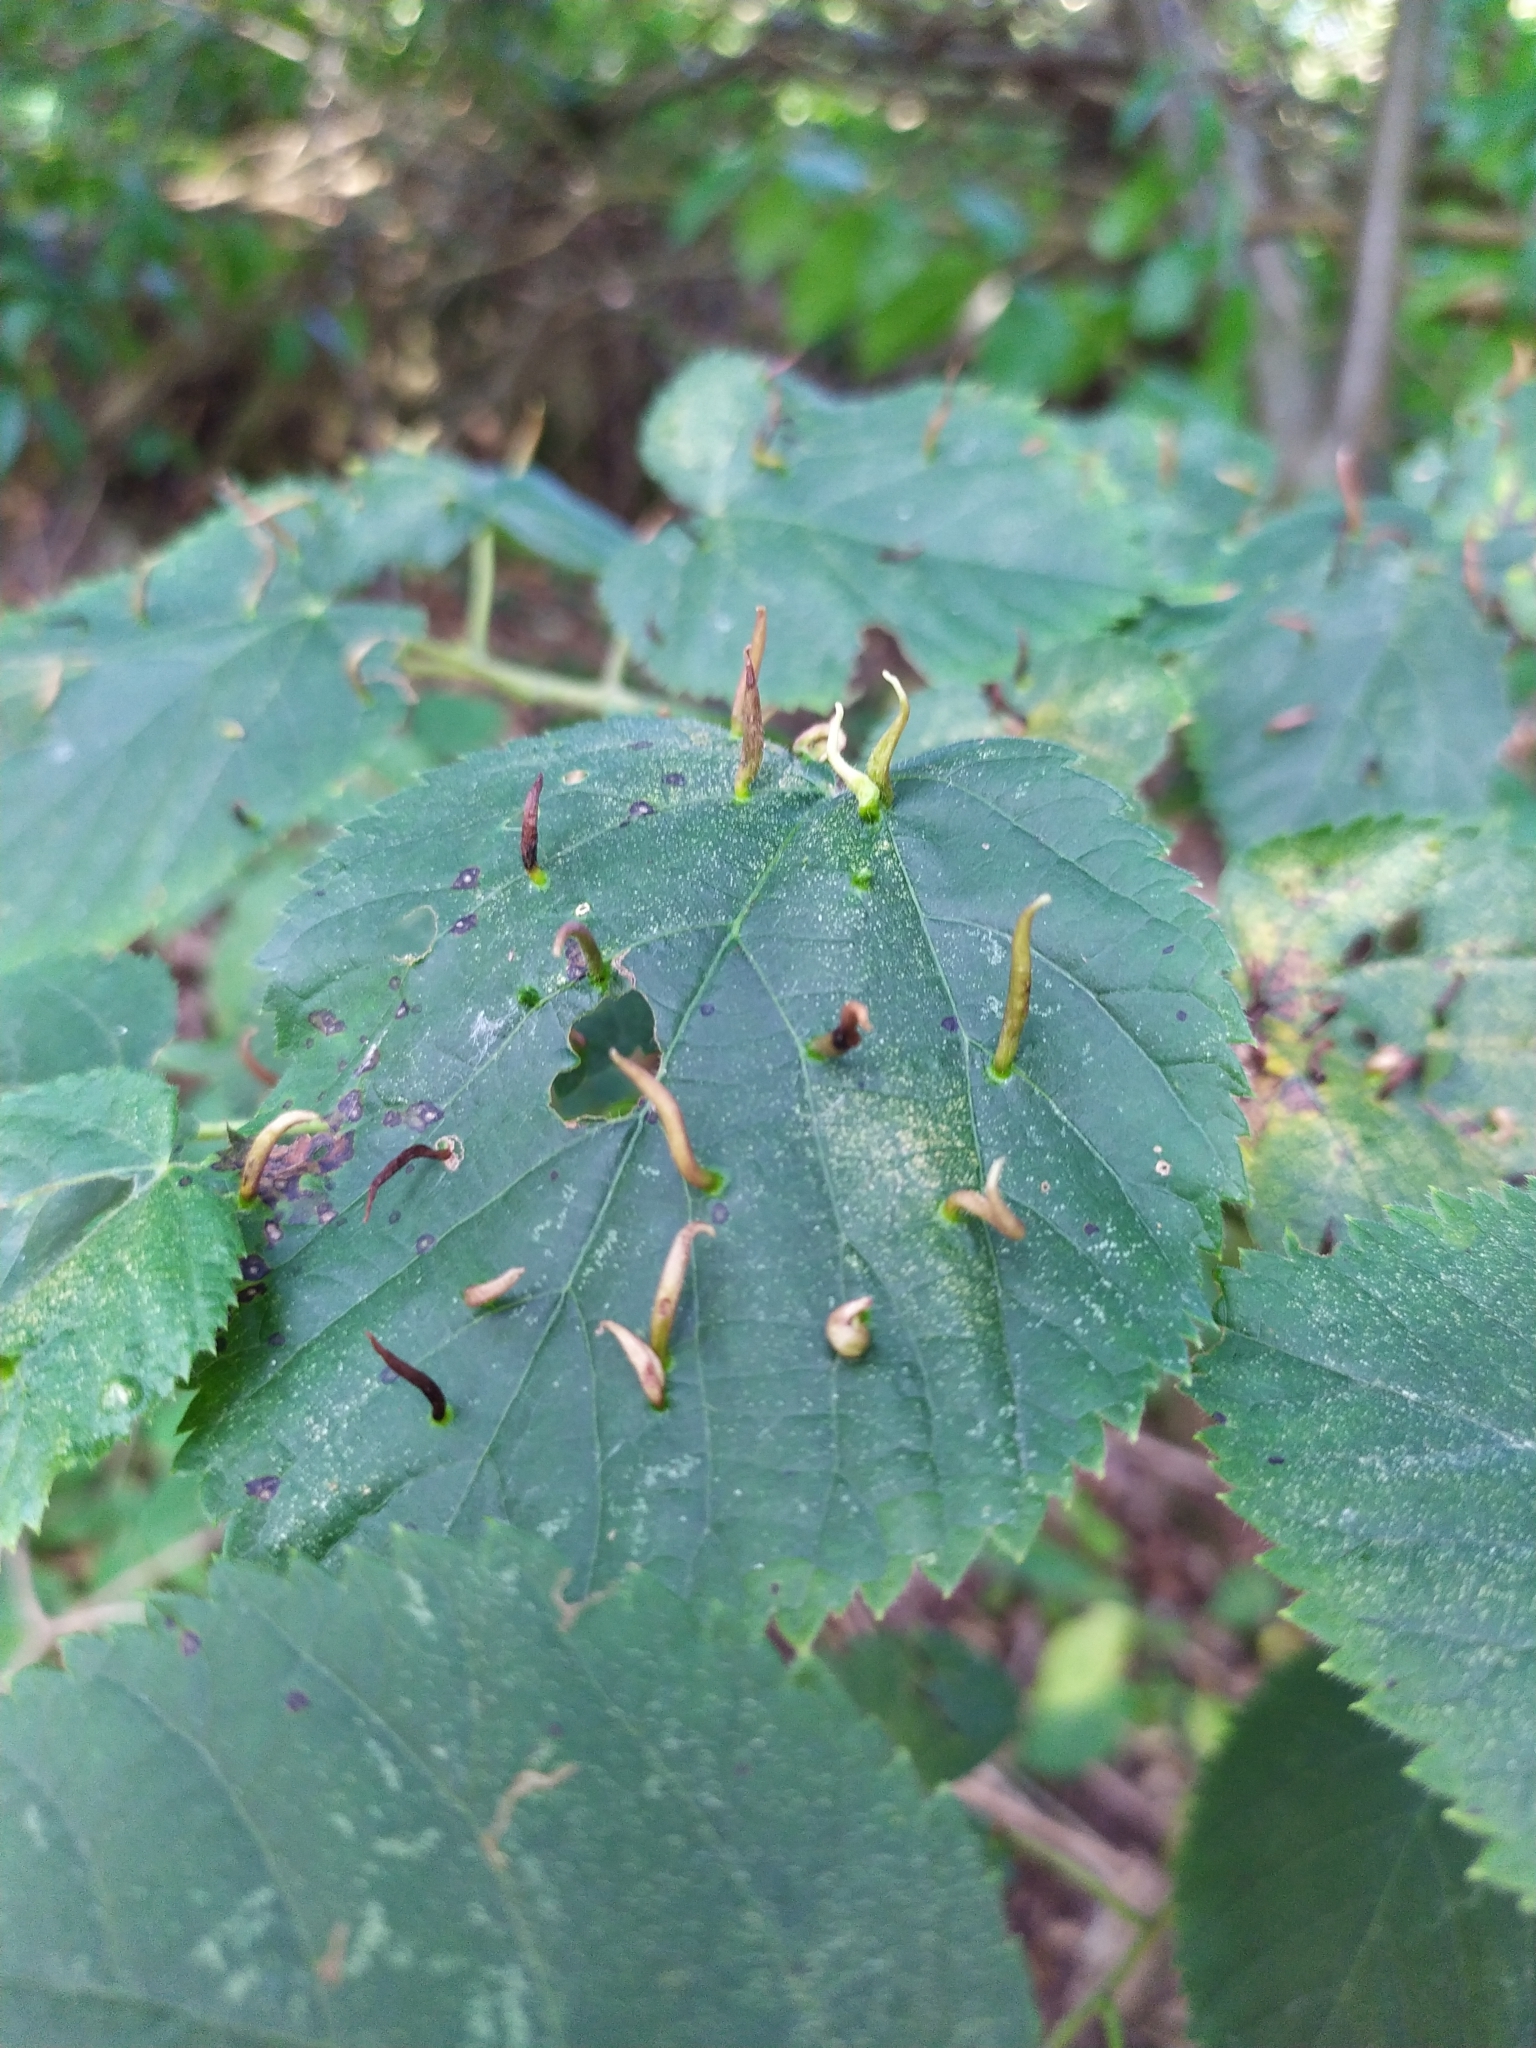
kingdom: Animalia
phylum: Arthropoda
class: Arachnida
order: Trombidiformes
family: Eriophyidae
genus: Eriophyes
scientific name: Eriophyes tiliae
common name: Red nail gall mite
